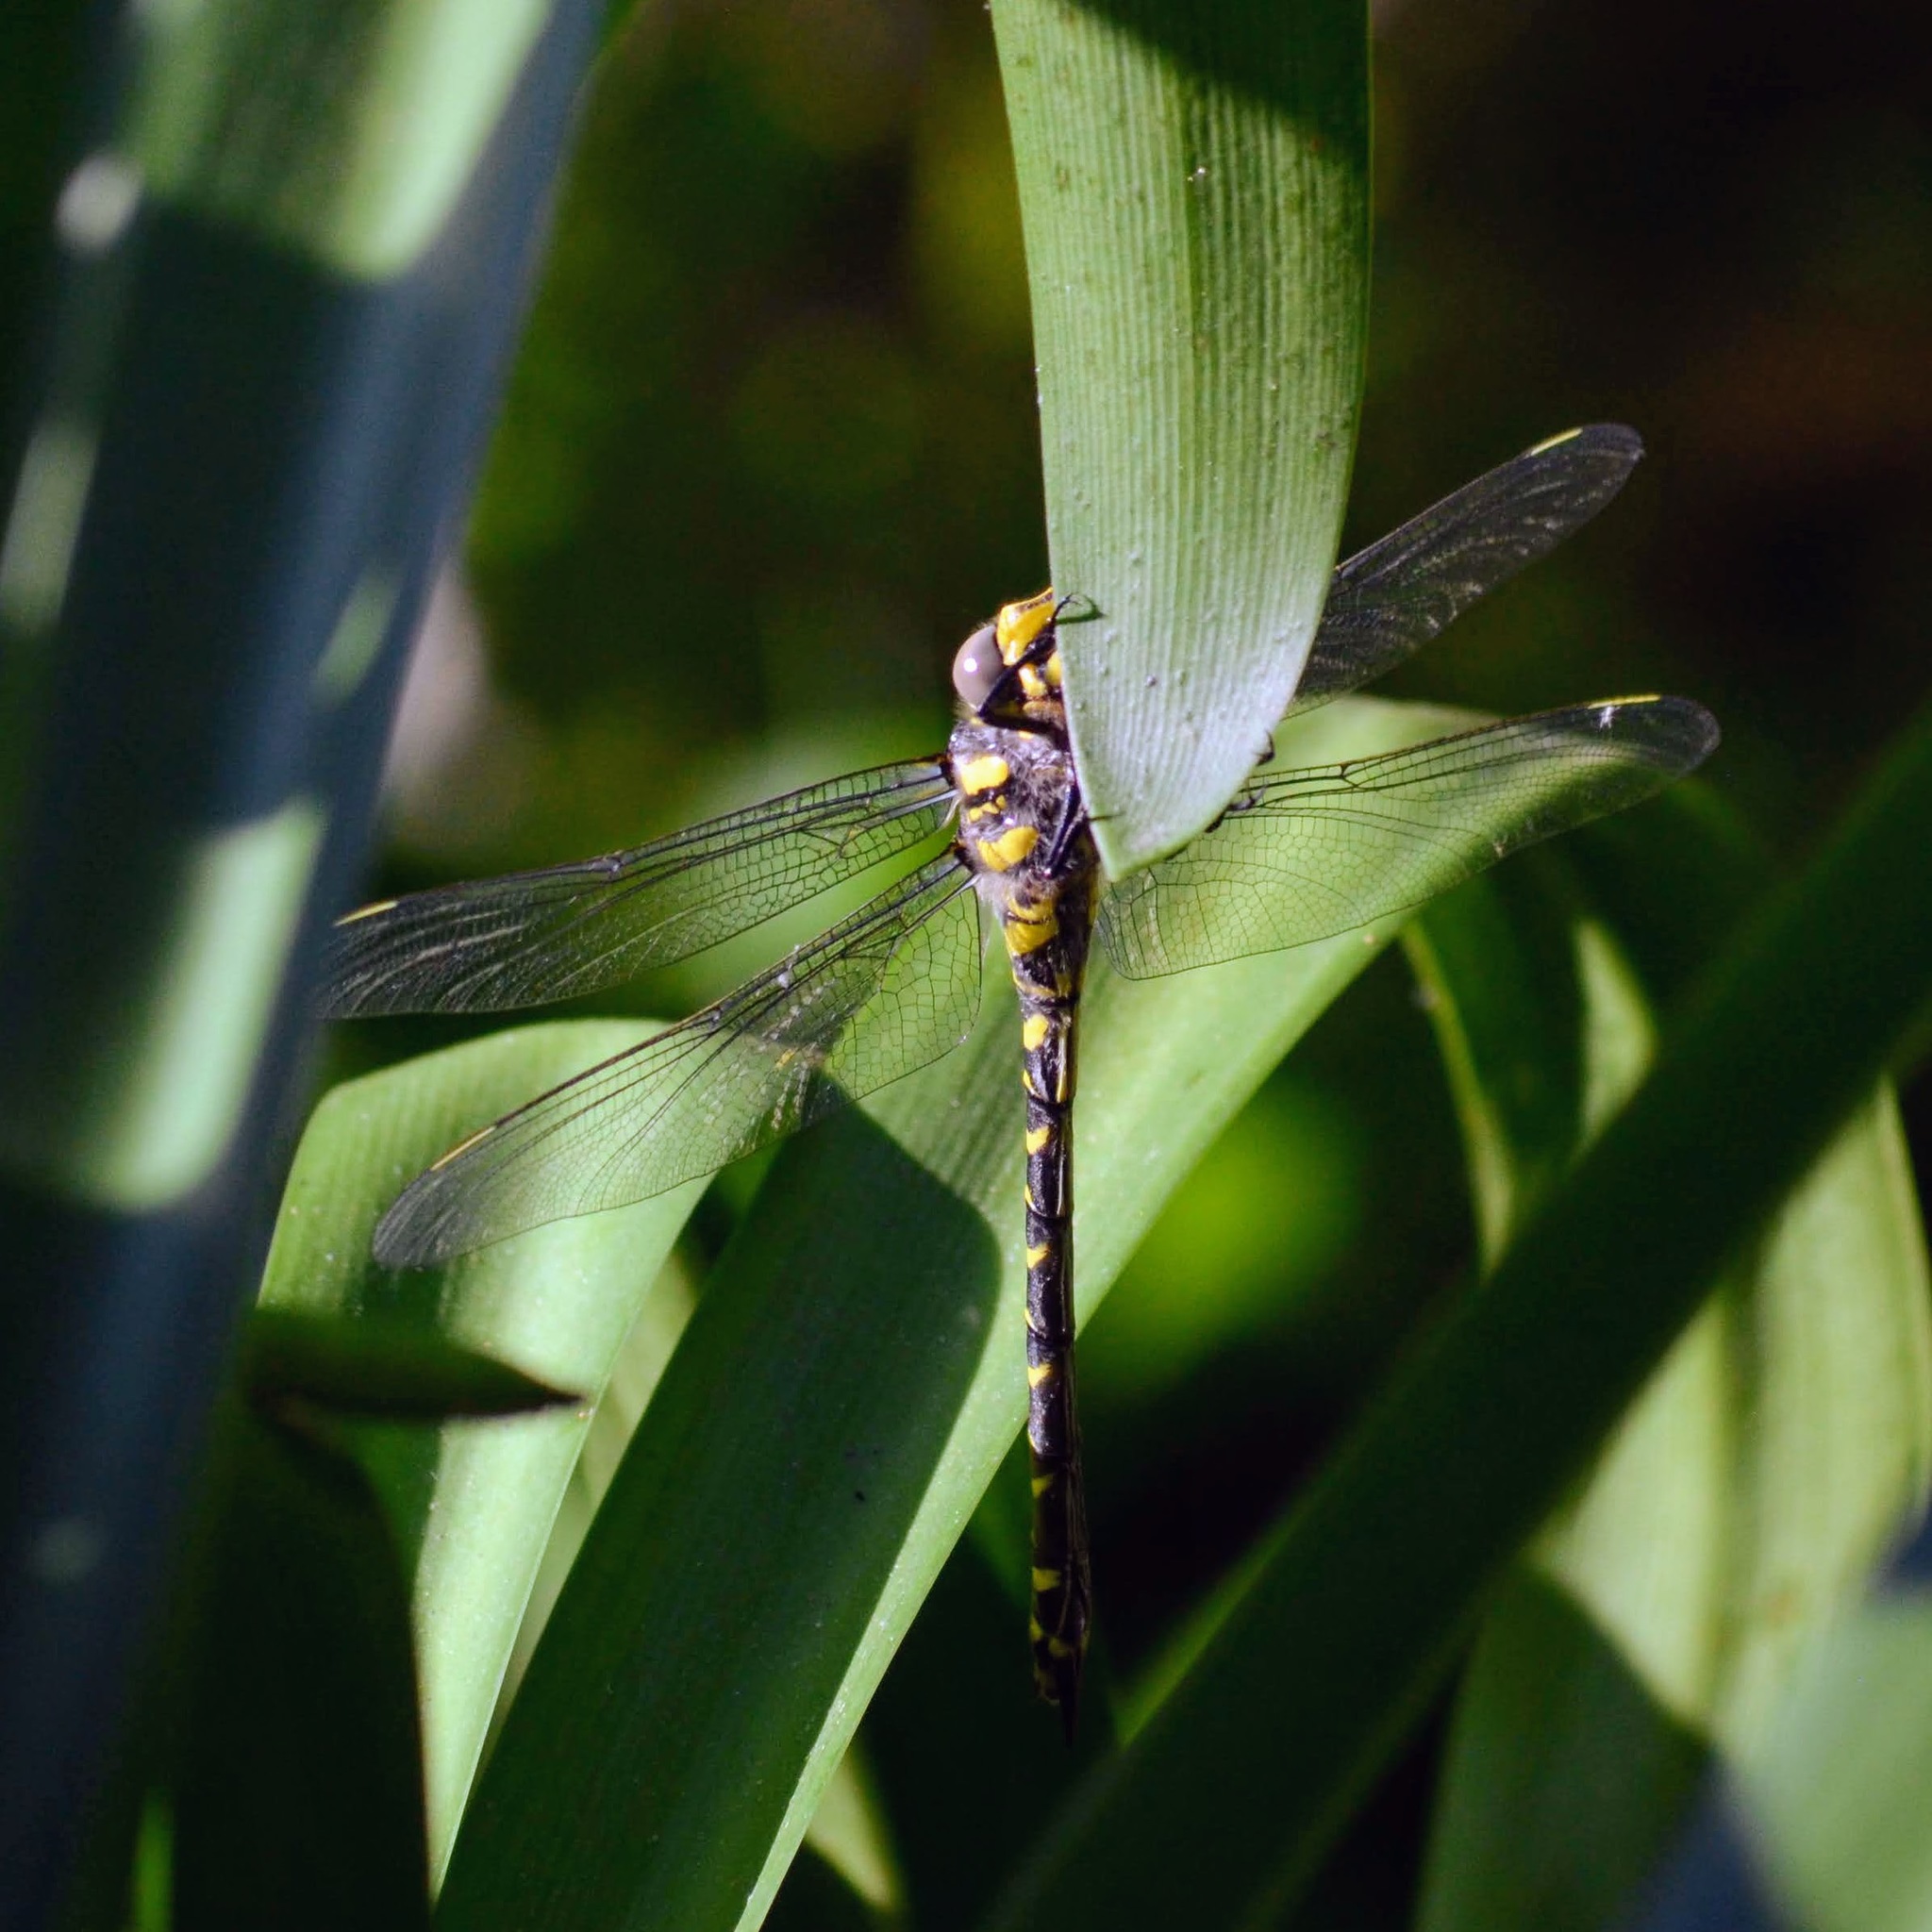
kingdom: Animalia
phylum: Arthropoda
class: Insecta
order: Odonata
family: Cordulegastridae
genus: Cordulegaster
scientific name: Cordulegaster boltonii
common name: Golden-ringed dragonfly
